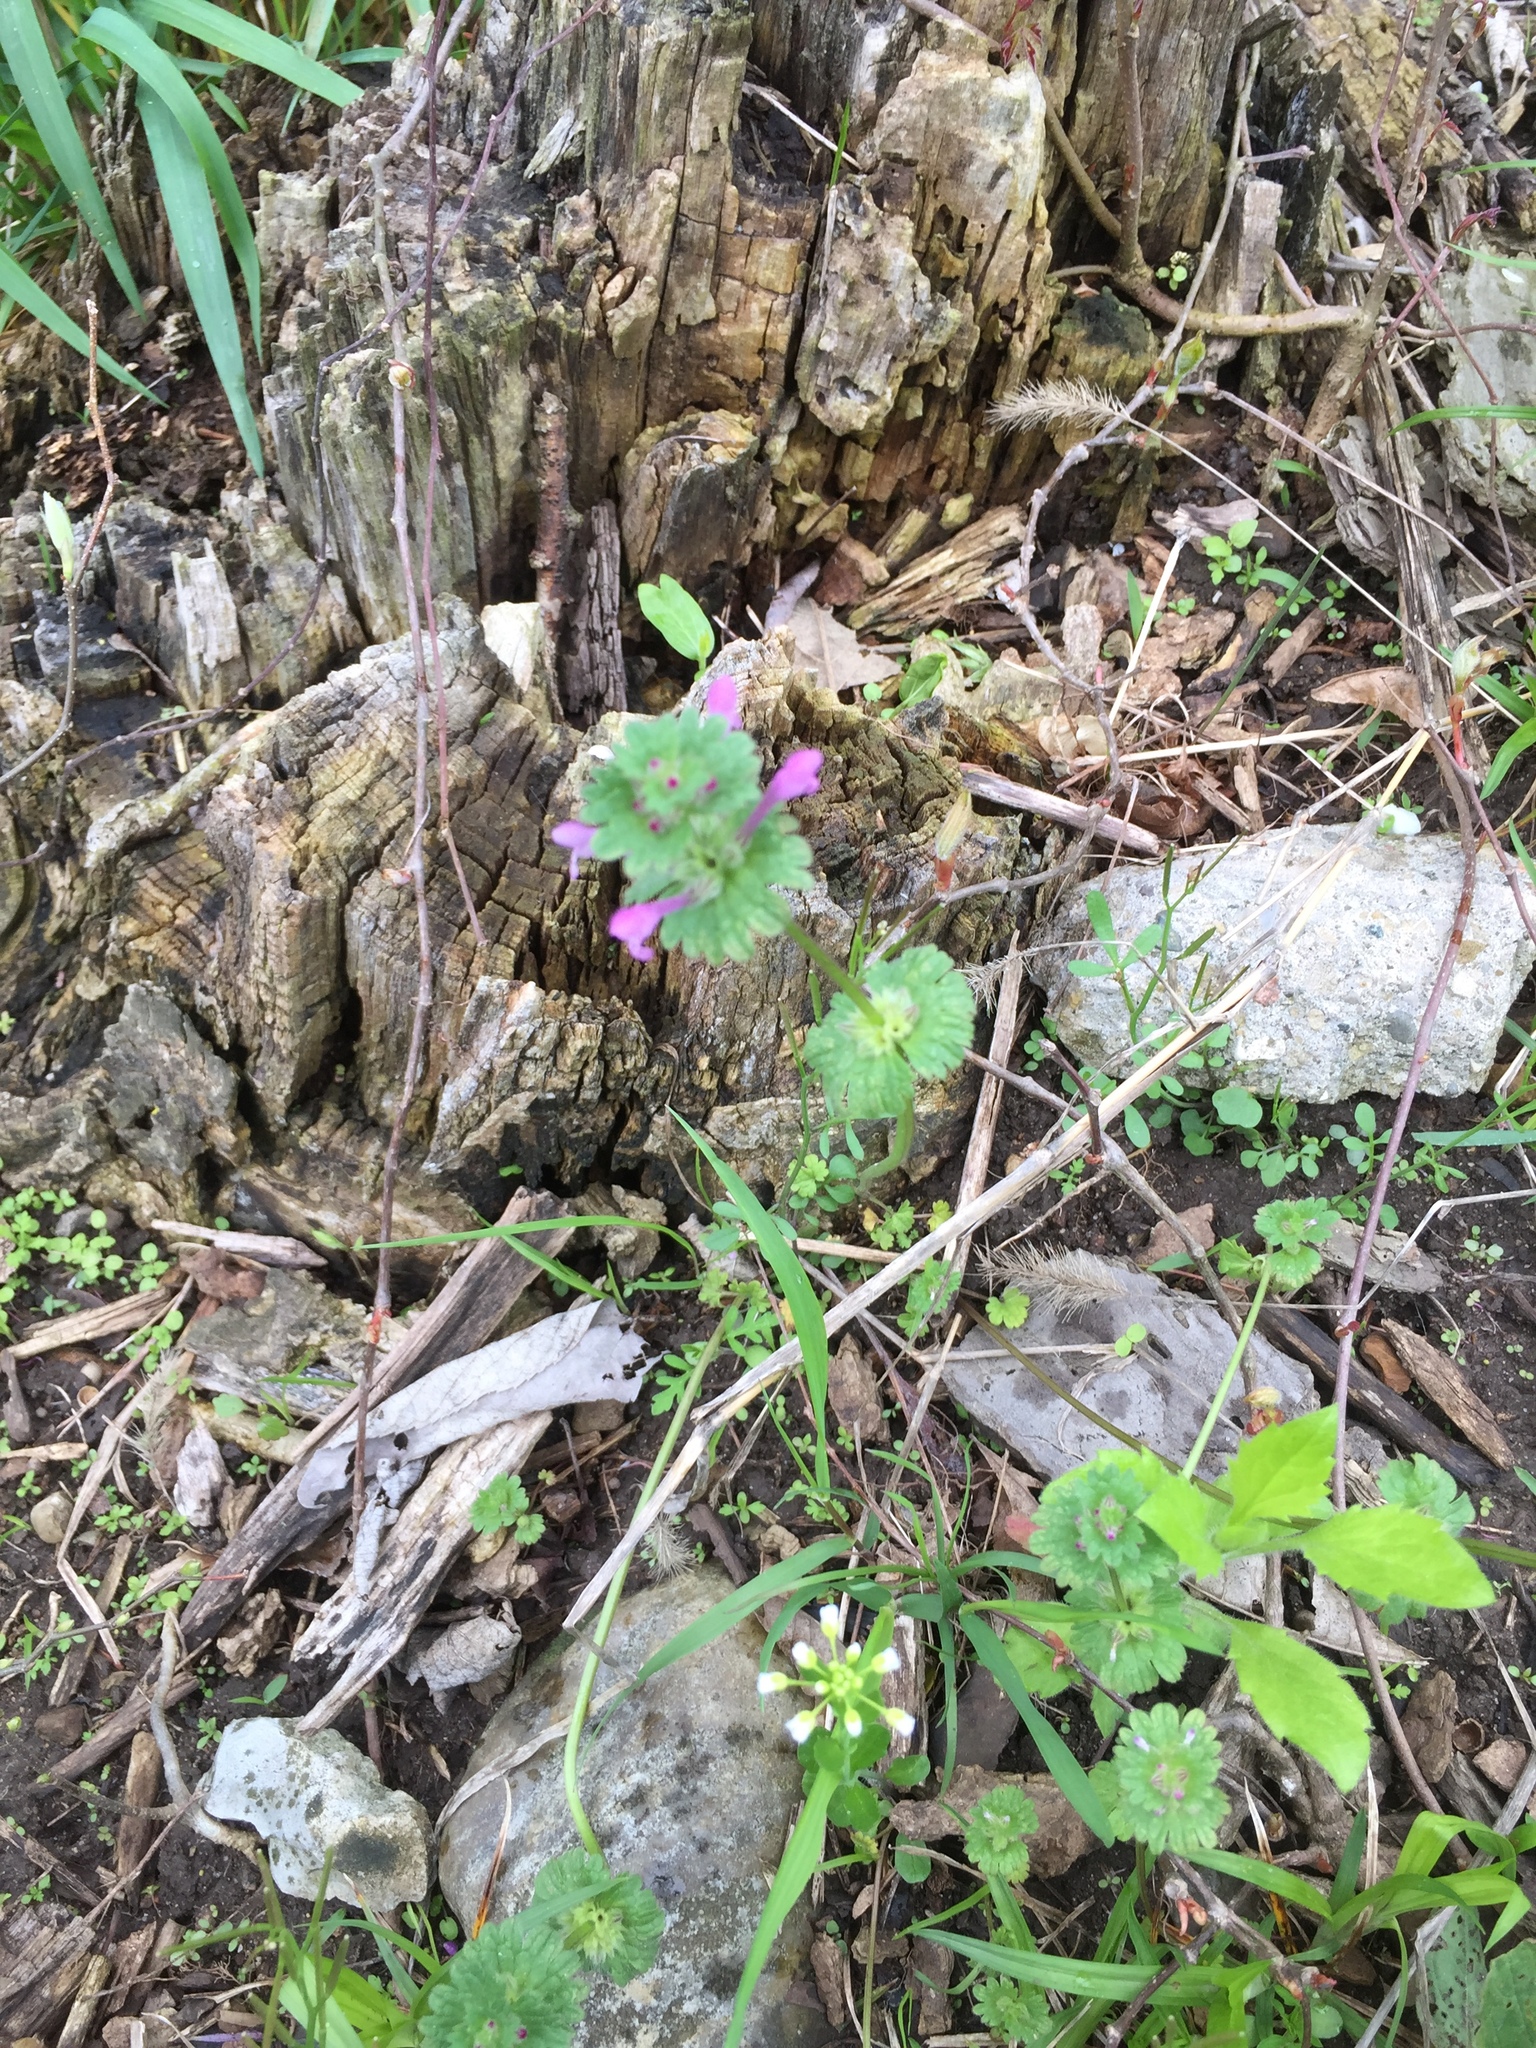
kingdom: Plantae
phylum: Tracheophyta
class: Magnoliopsida
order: Lamiales
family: Lamiaceae
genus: Lamium
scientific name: Lamium amplexicaule
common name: Henbit dead-nettle
